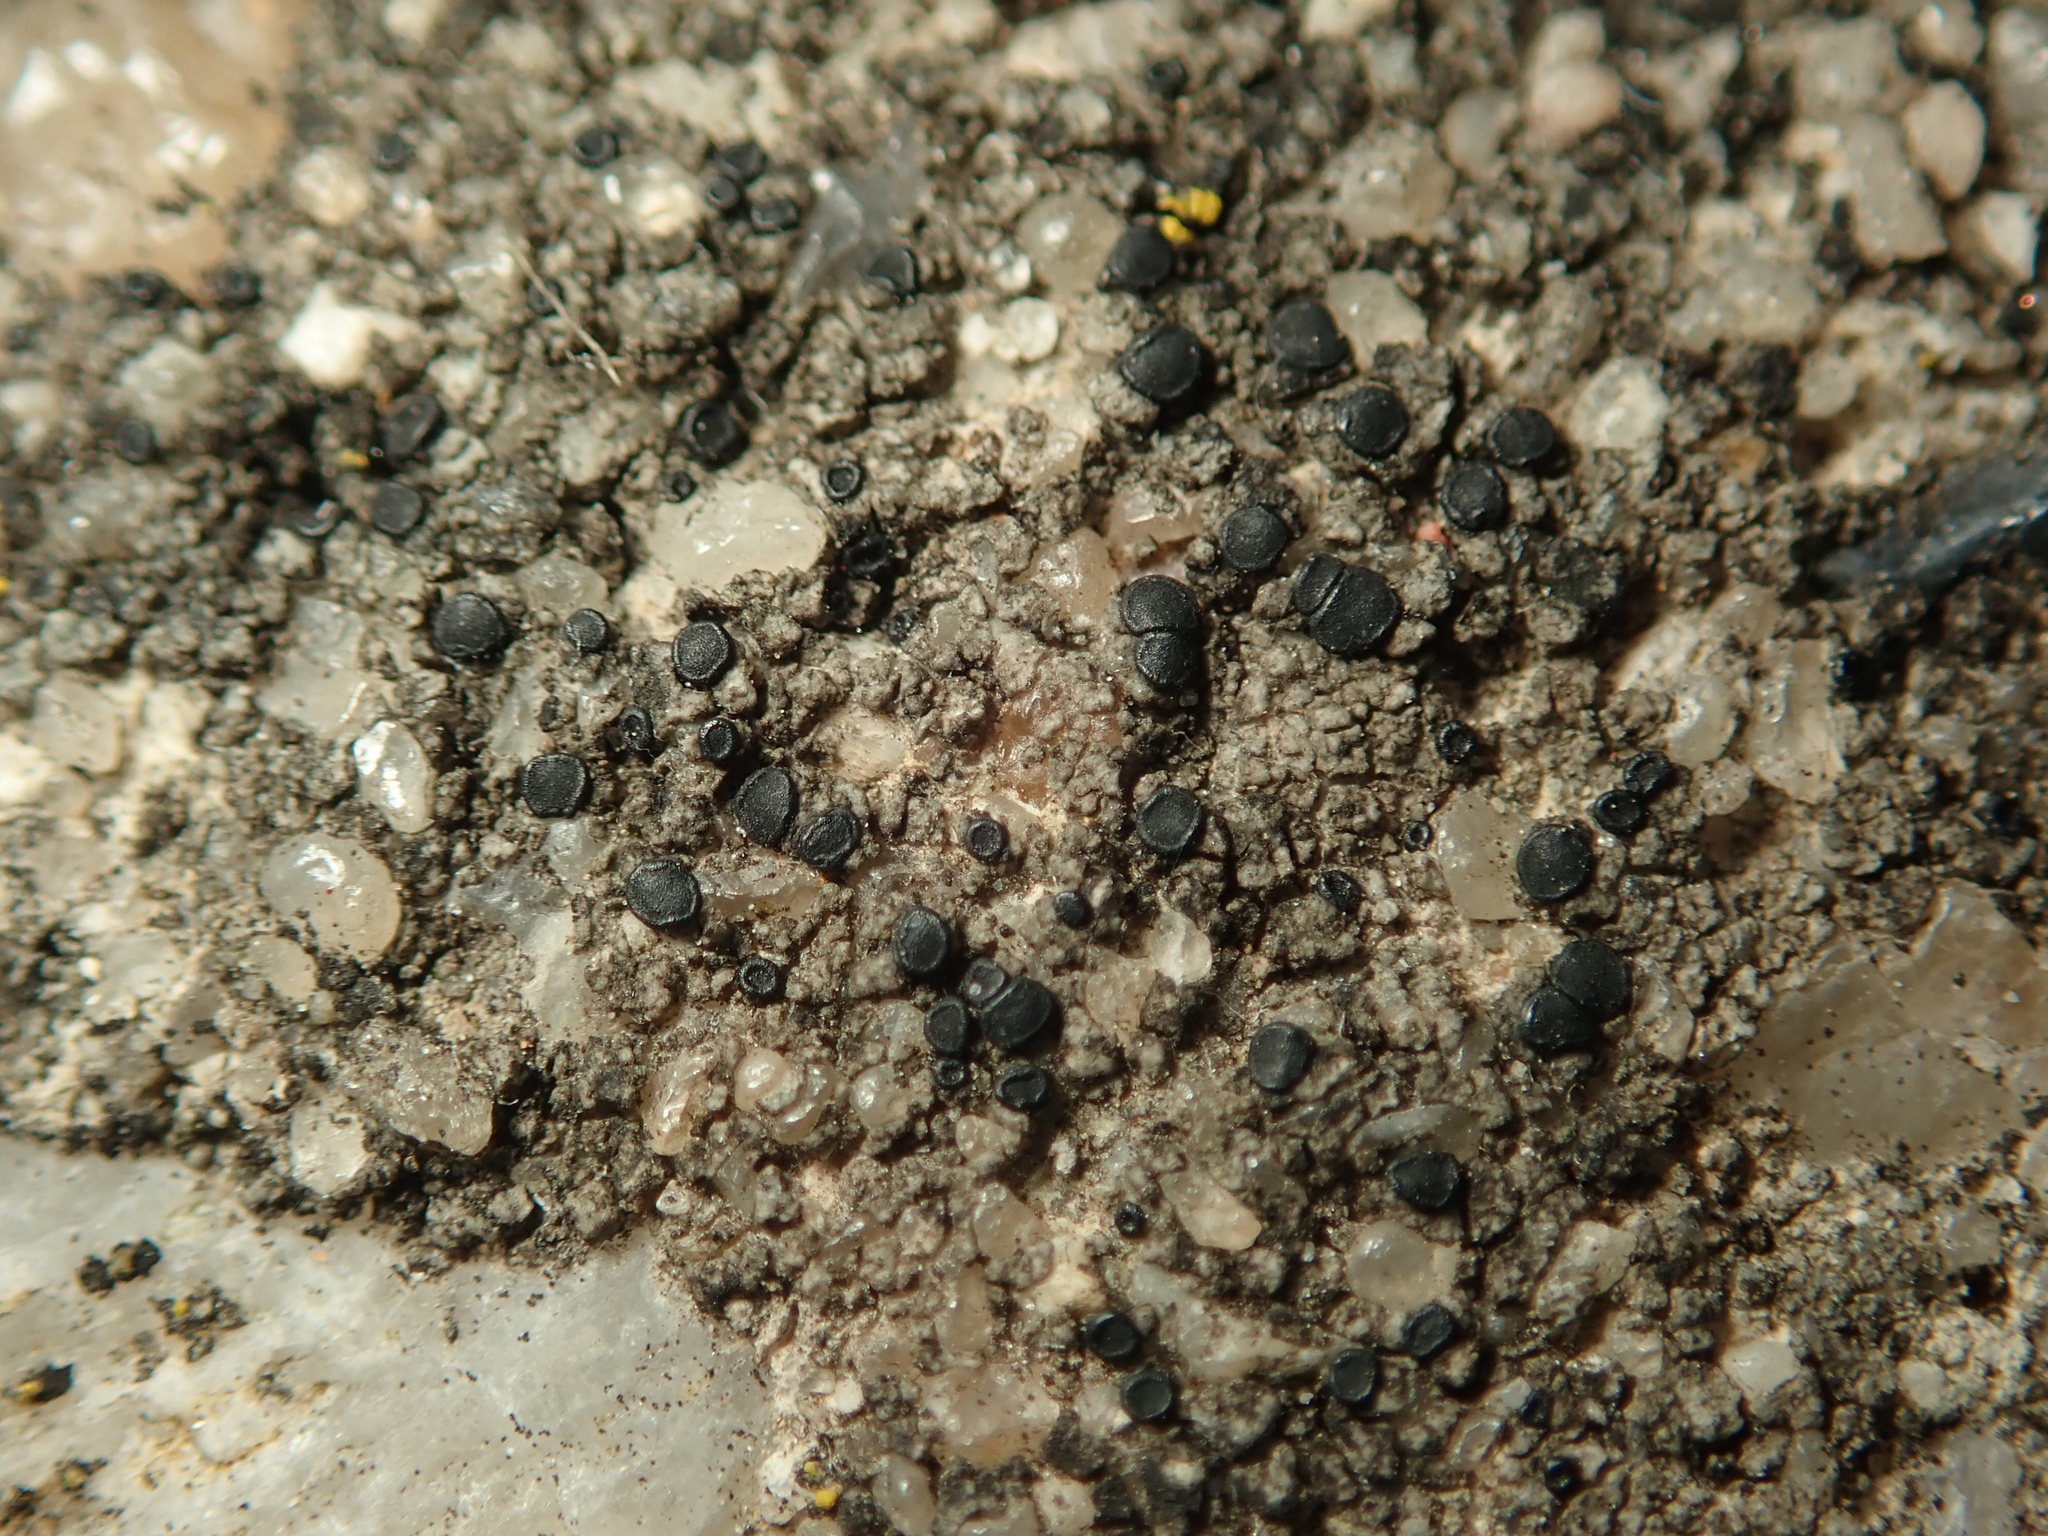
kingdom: Fungi
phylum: Ascomycota
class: Lecanoromycetes
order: Lecanorales
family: Lecanoraceae
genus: Lecidella
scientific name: Lecidella stigmatea
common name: Limestone disc lichen
